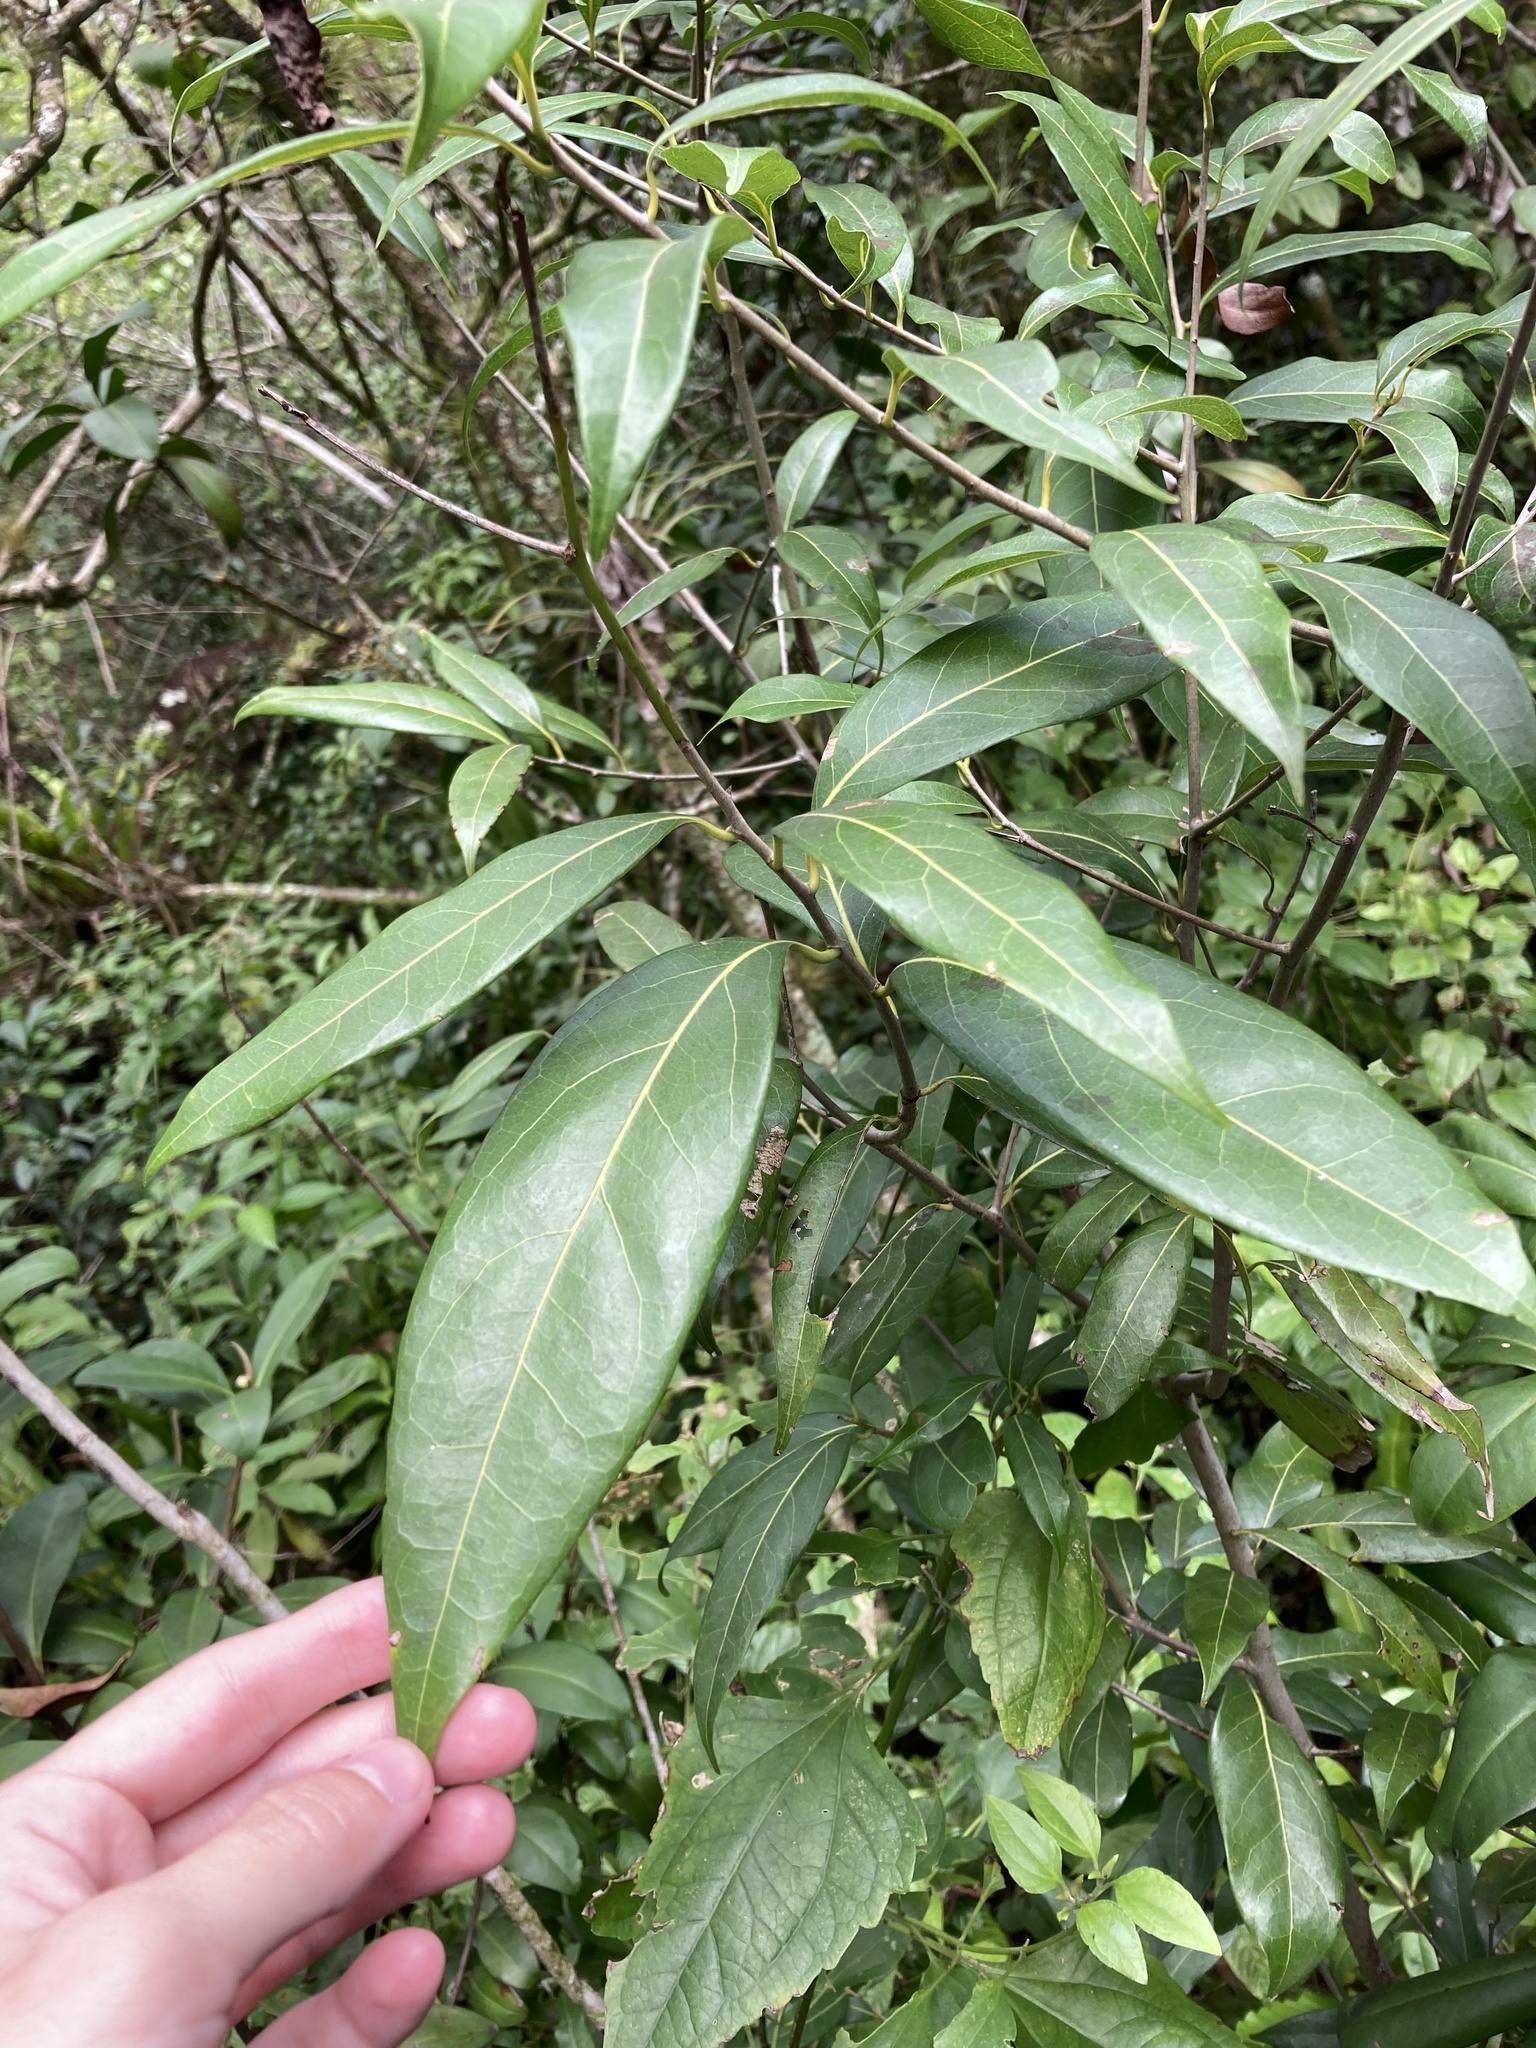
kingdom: Plantae
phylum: Tracheophyta
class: Magnoliopsida
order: Laurales
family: Lauraceae
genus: Damburneya
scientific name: Damburneya
